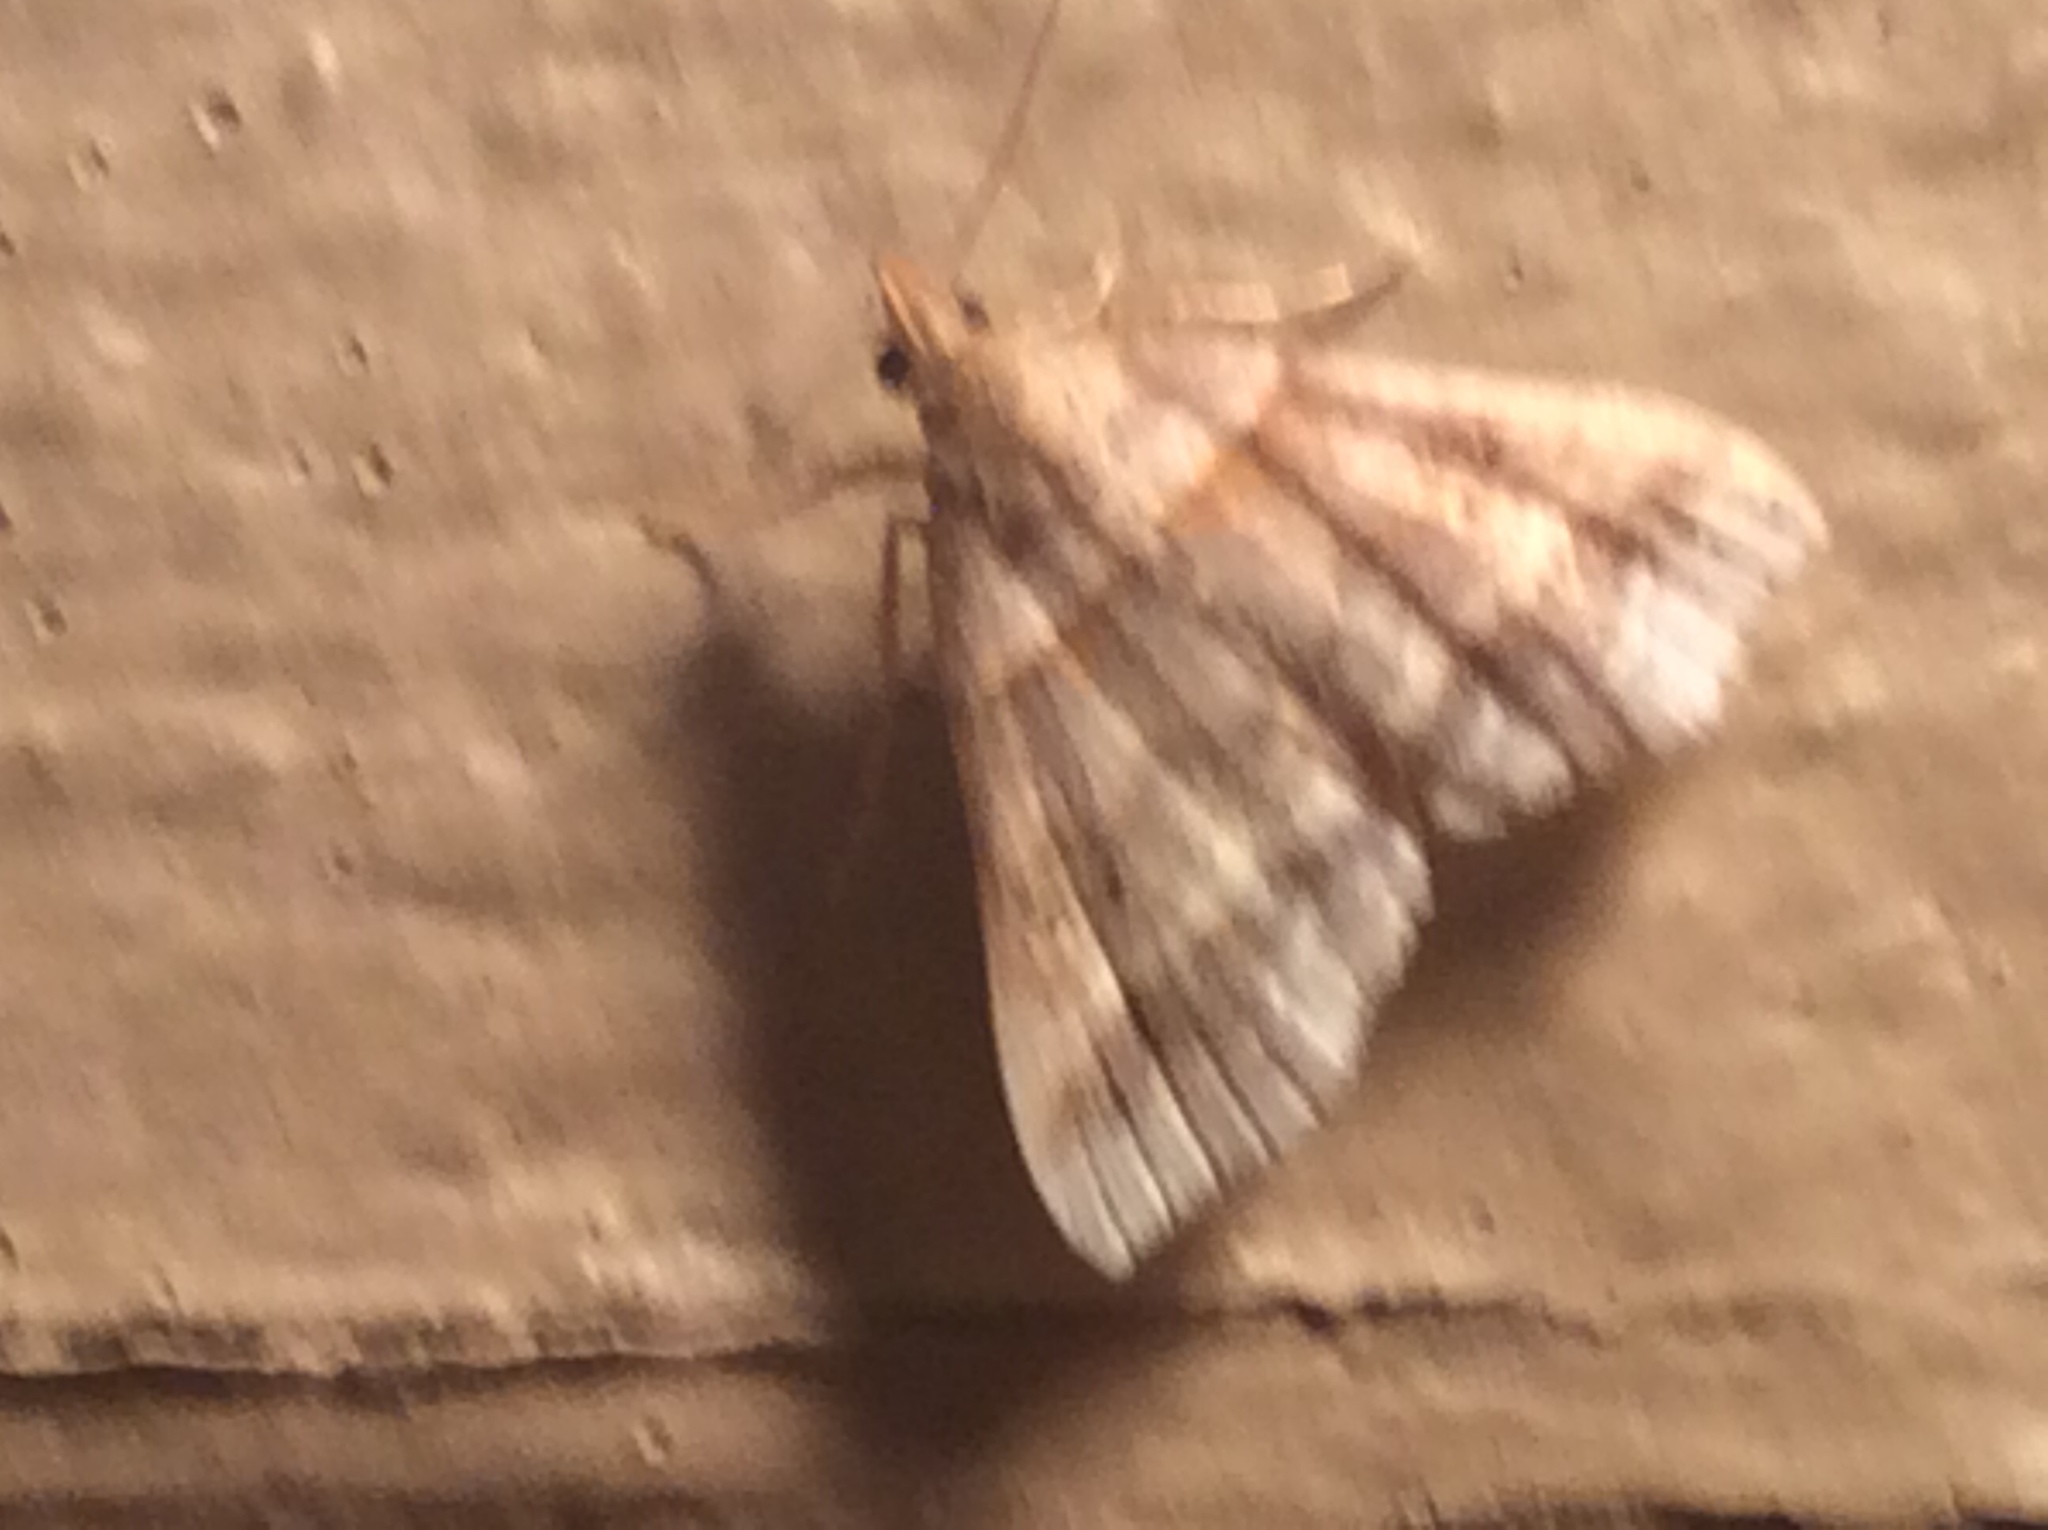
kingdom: Animalia
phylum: Arthropoda
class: Insecta
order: Lepidoptera
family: Erebidae
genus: Phaeolita
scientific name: Phaeolita pyramusalis
